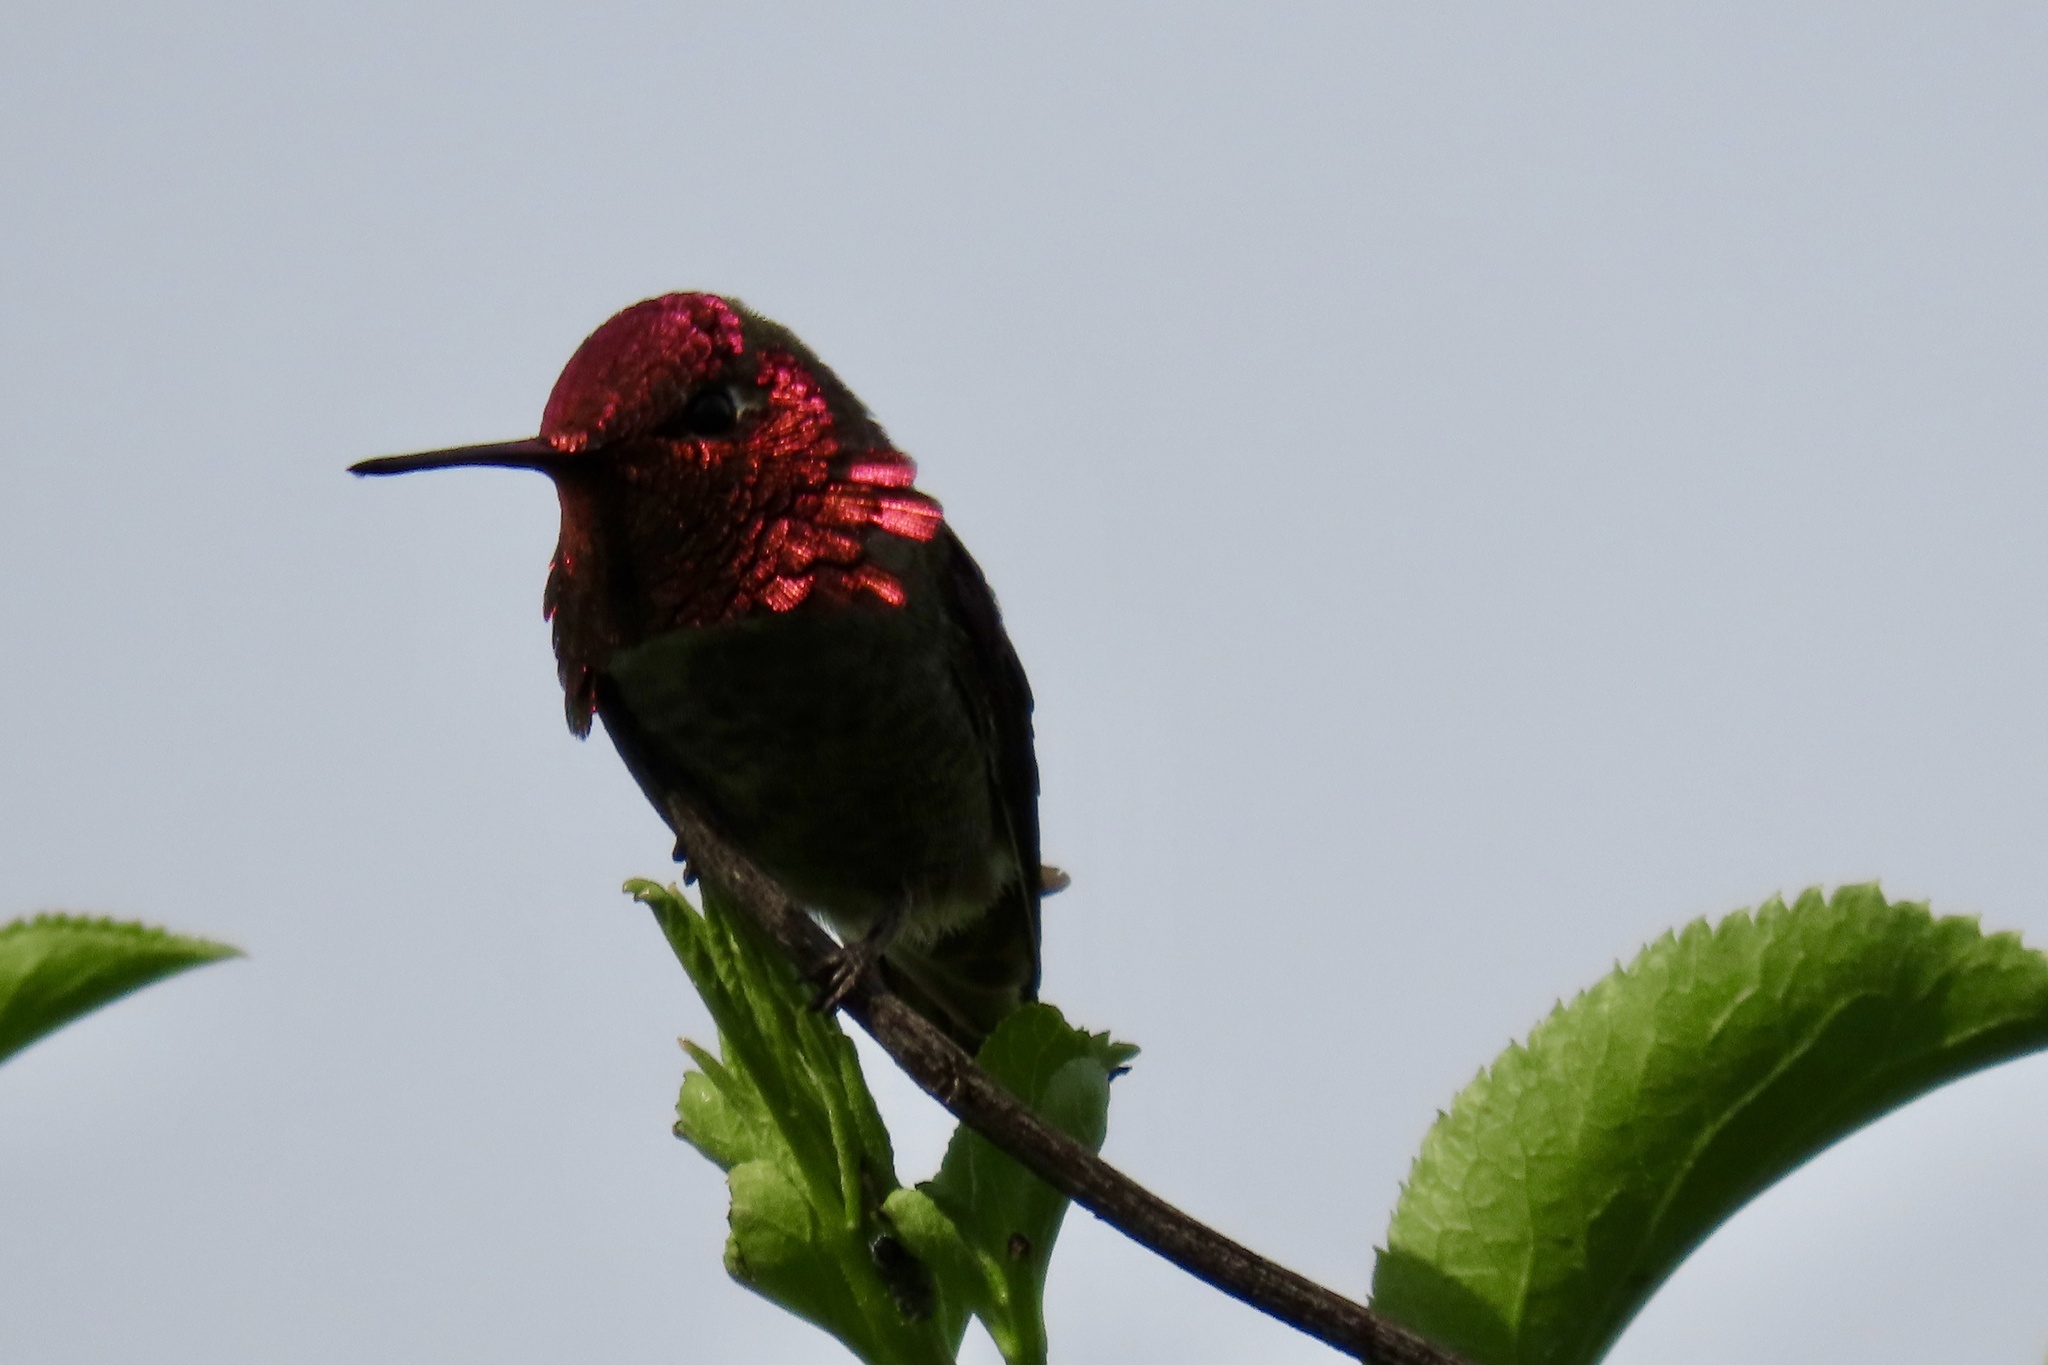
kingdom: Animalia
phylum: Chordata
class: Aves
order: Apodiformes
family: Trochilidae
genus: Calypte
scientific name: Calypte anna
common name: Anna's hummingbird
